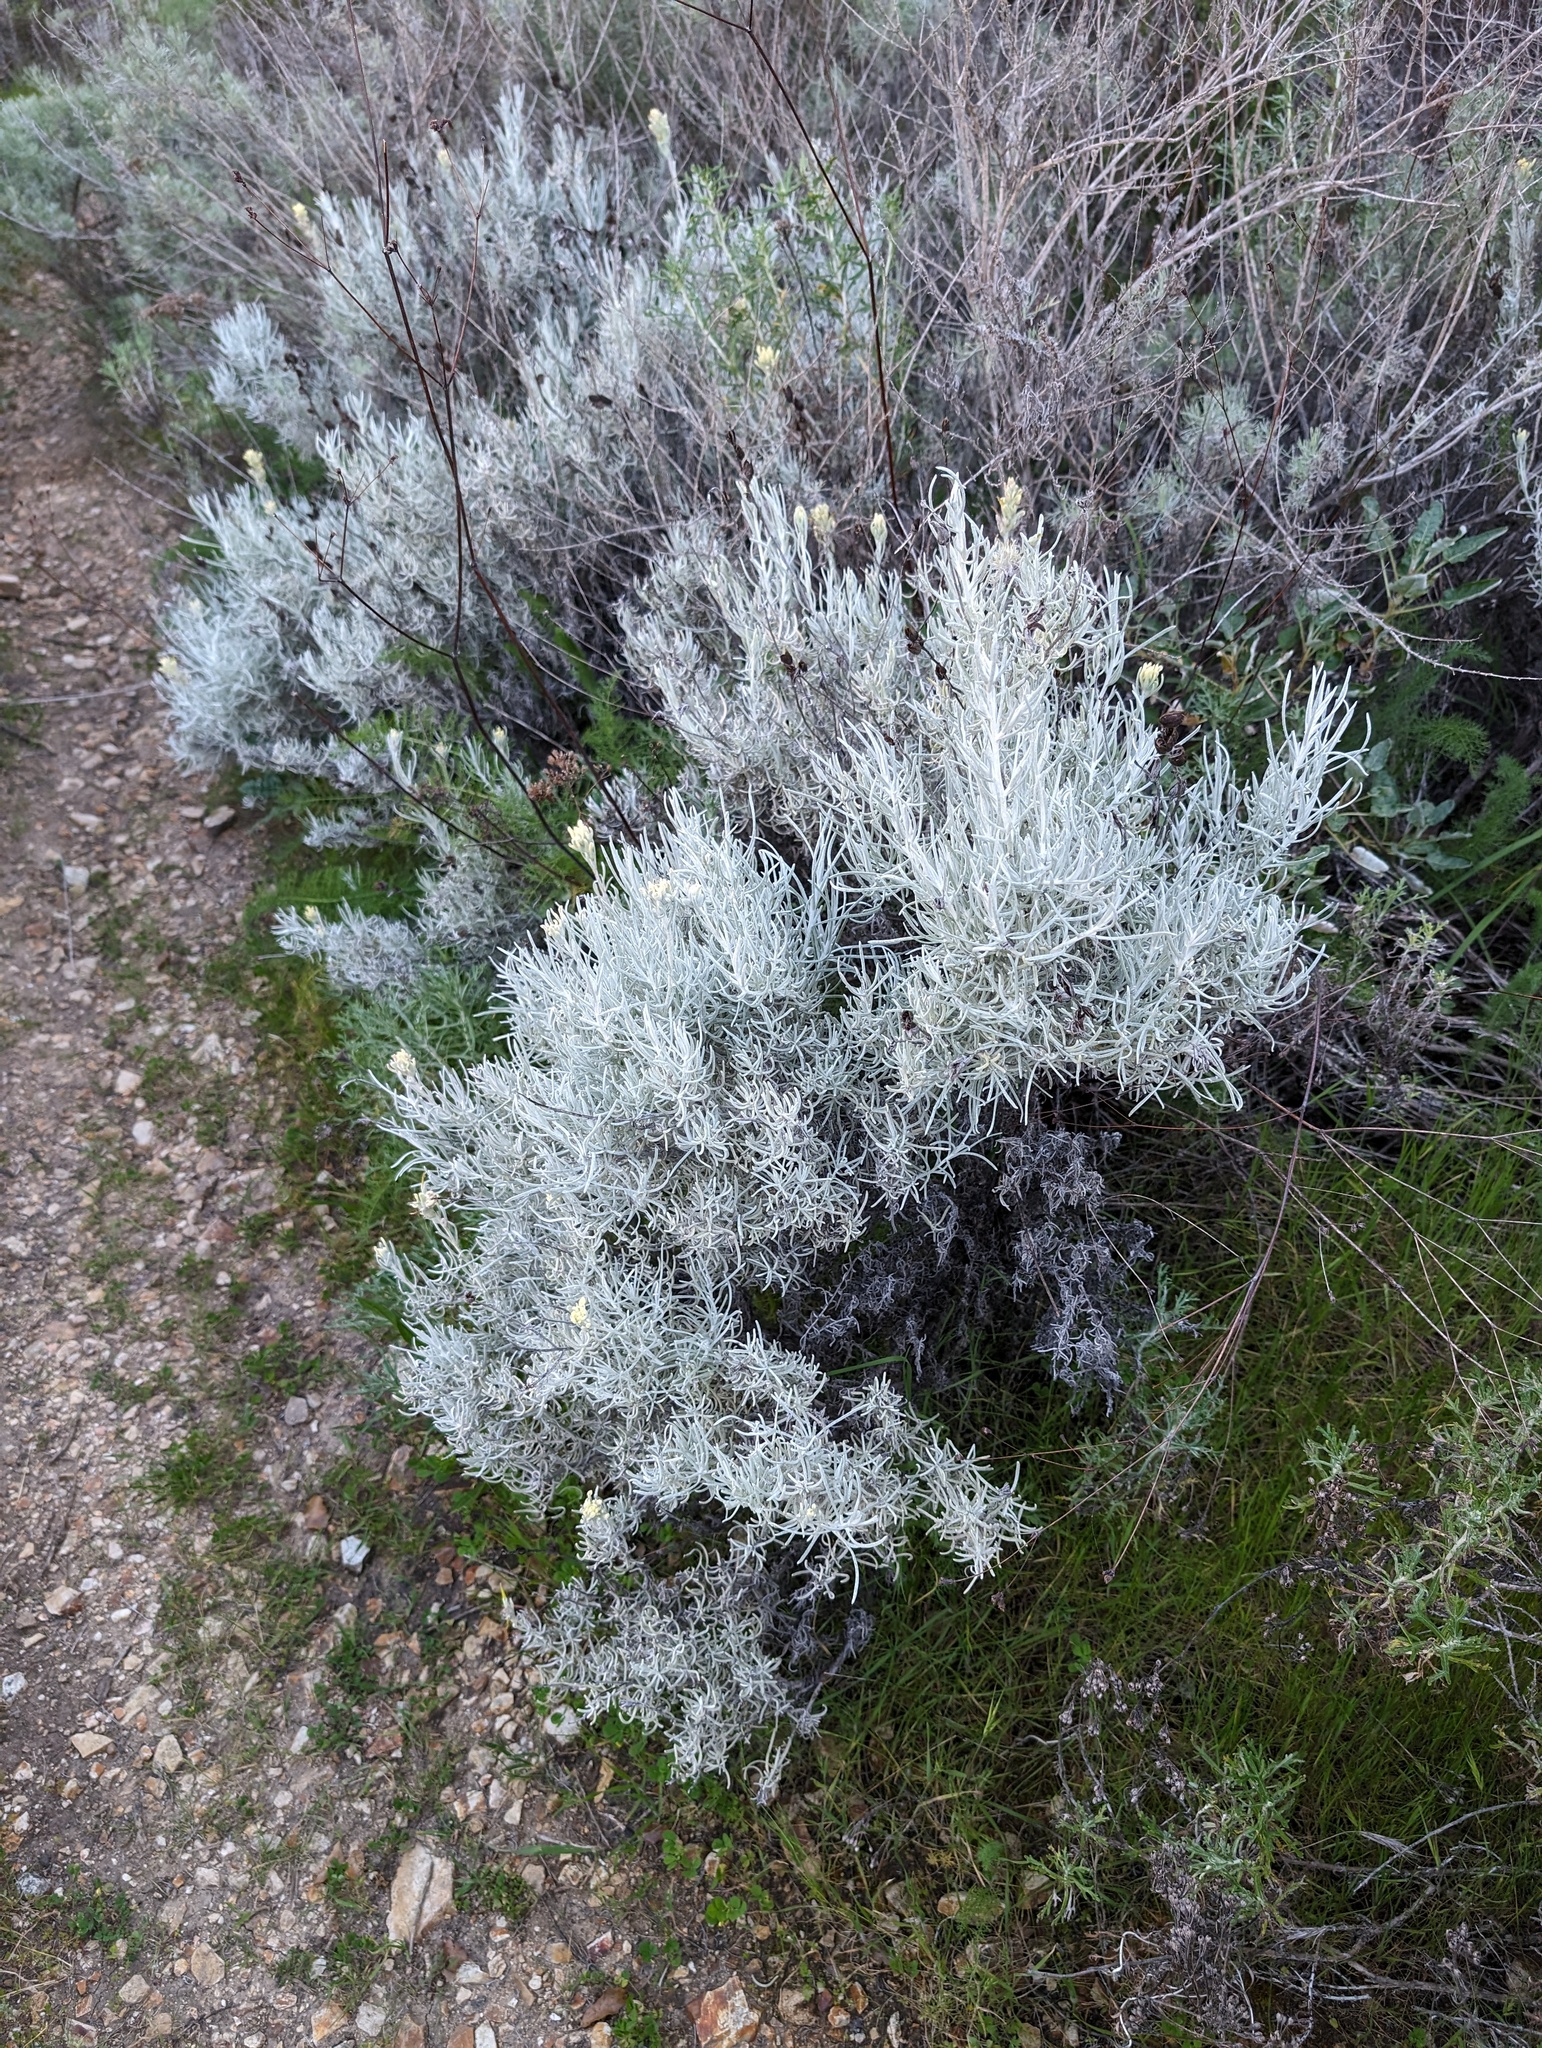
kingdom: Plantae
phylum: Tracheophyta
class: Magnoliopsida
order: Lamiales
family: Orobanchaceae
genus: Castilleja
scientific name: Castilleja hololeuca
